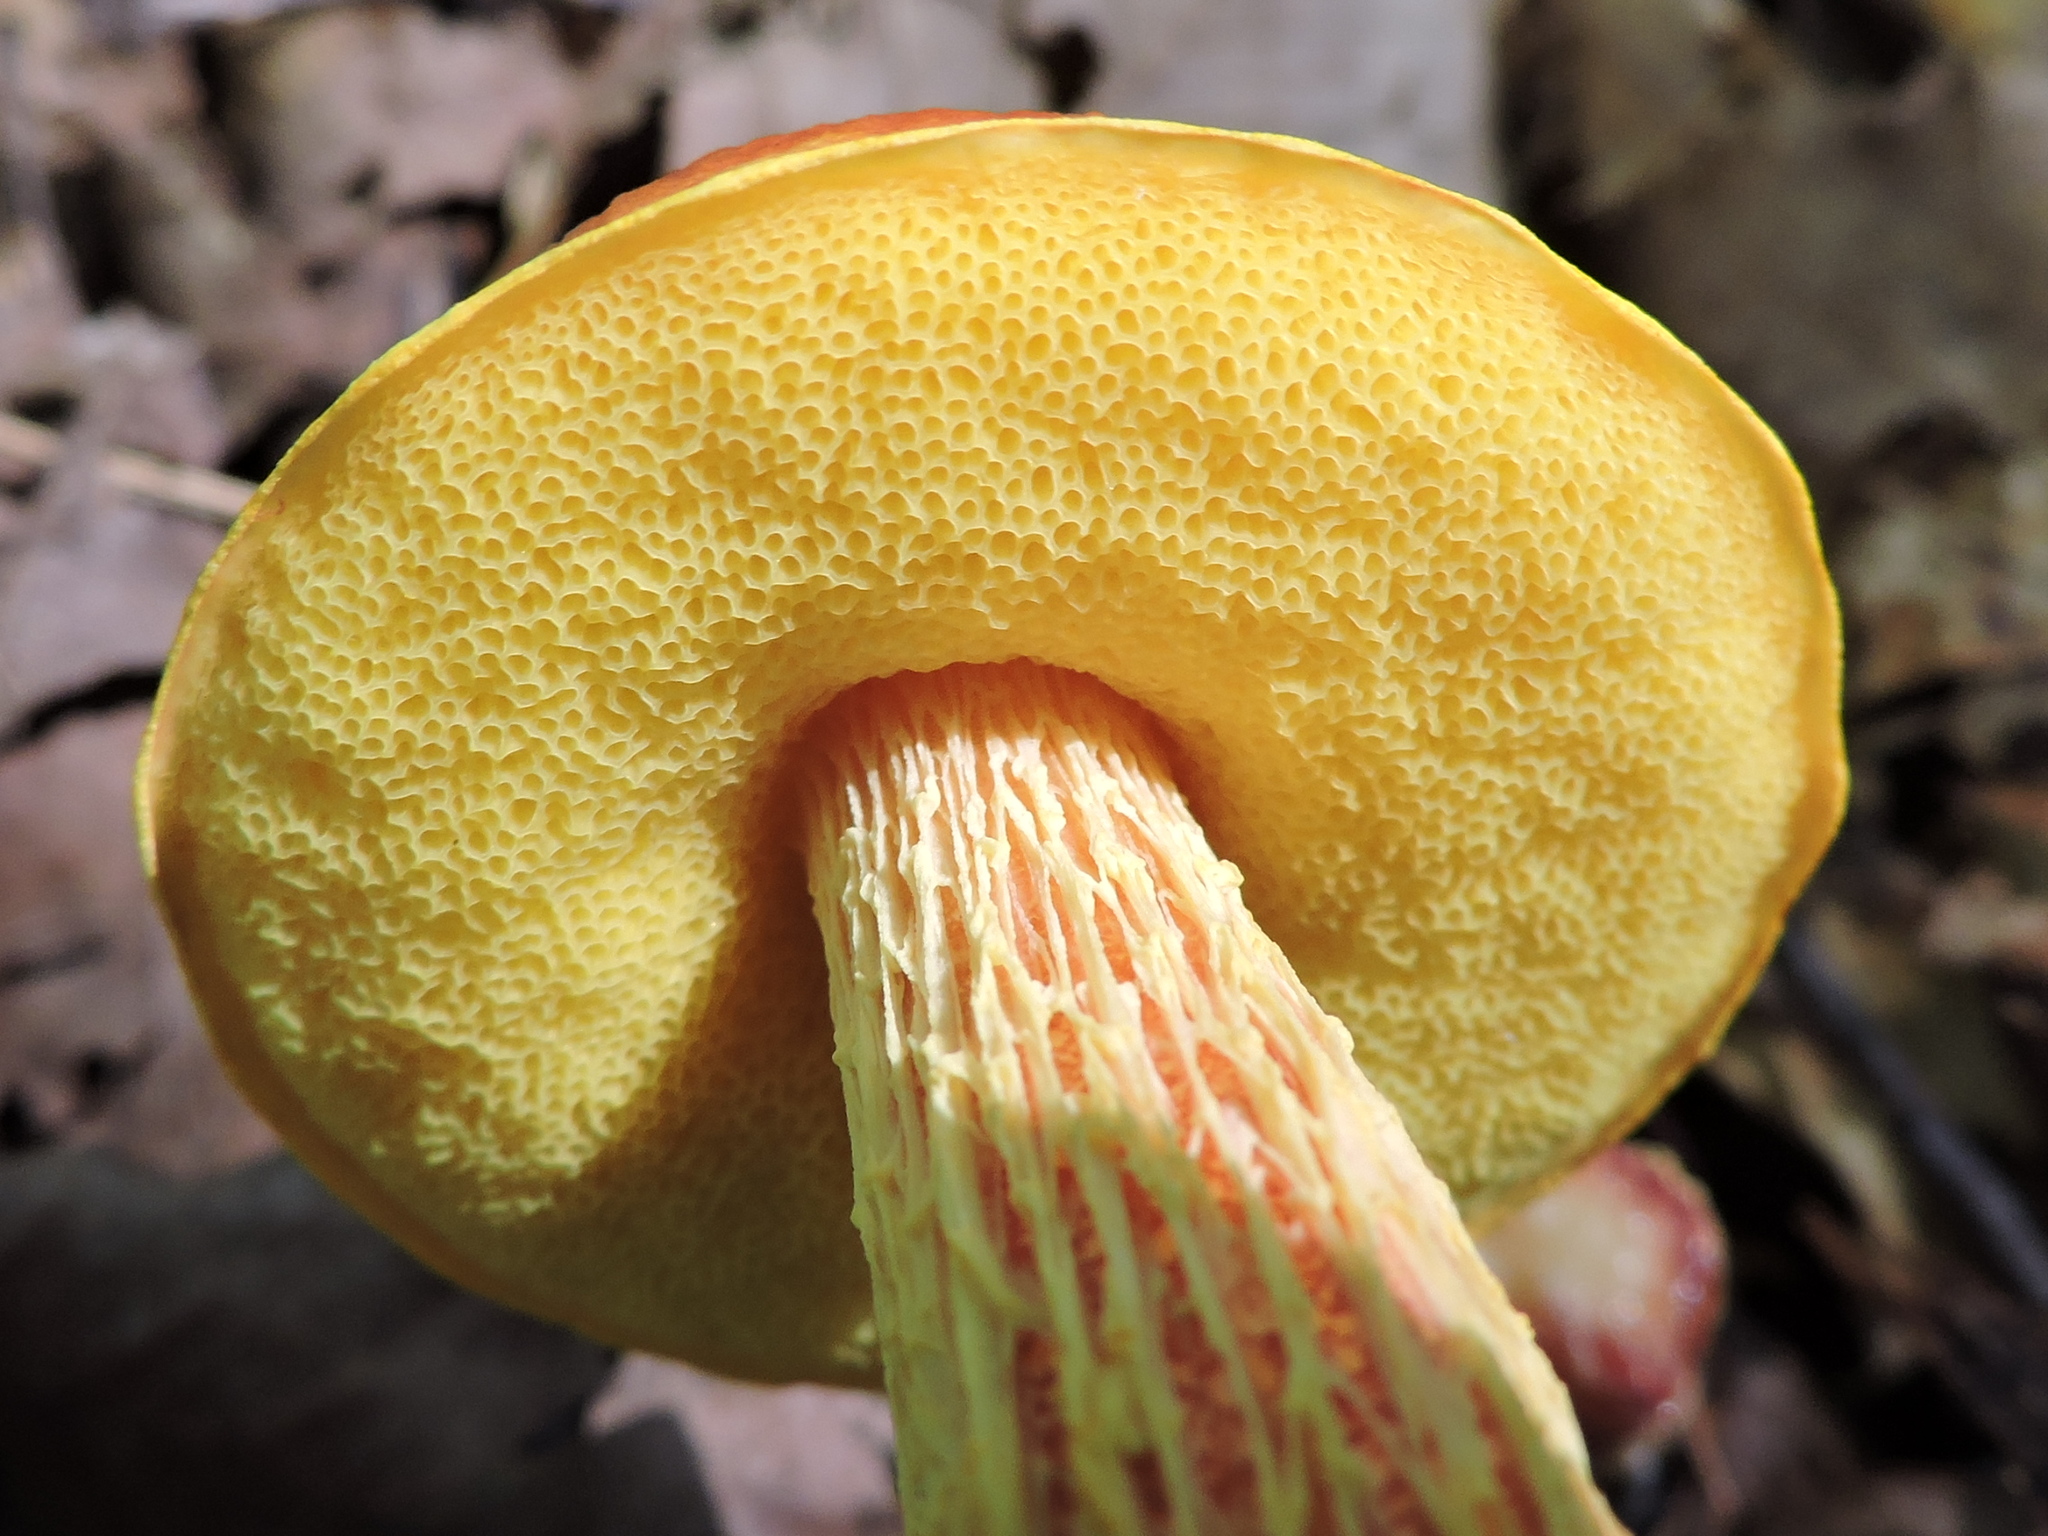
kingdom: Fungi
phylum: Basidiomycota
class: Agaricomycetes
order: Boletales
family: Boletaceae
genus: Aureoboletus
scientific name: Aureoboletus betula
